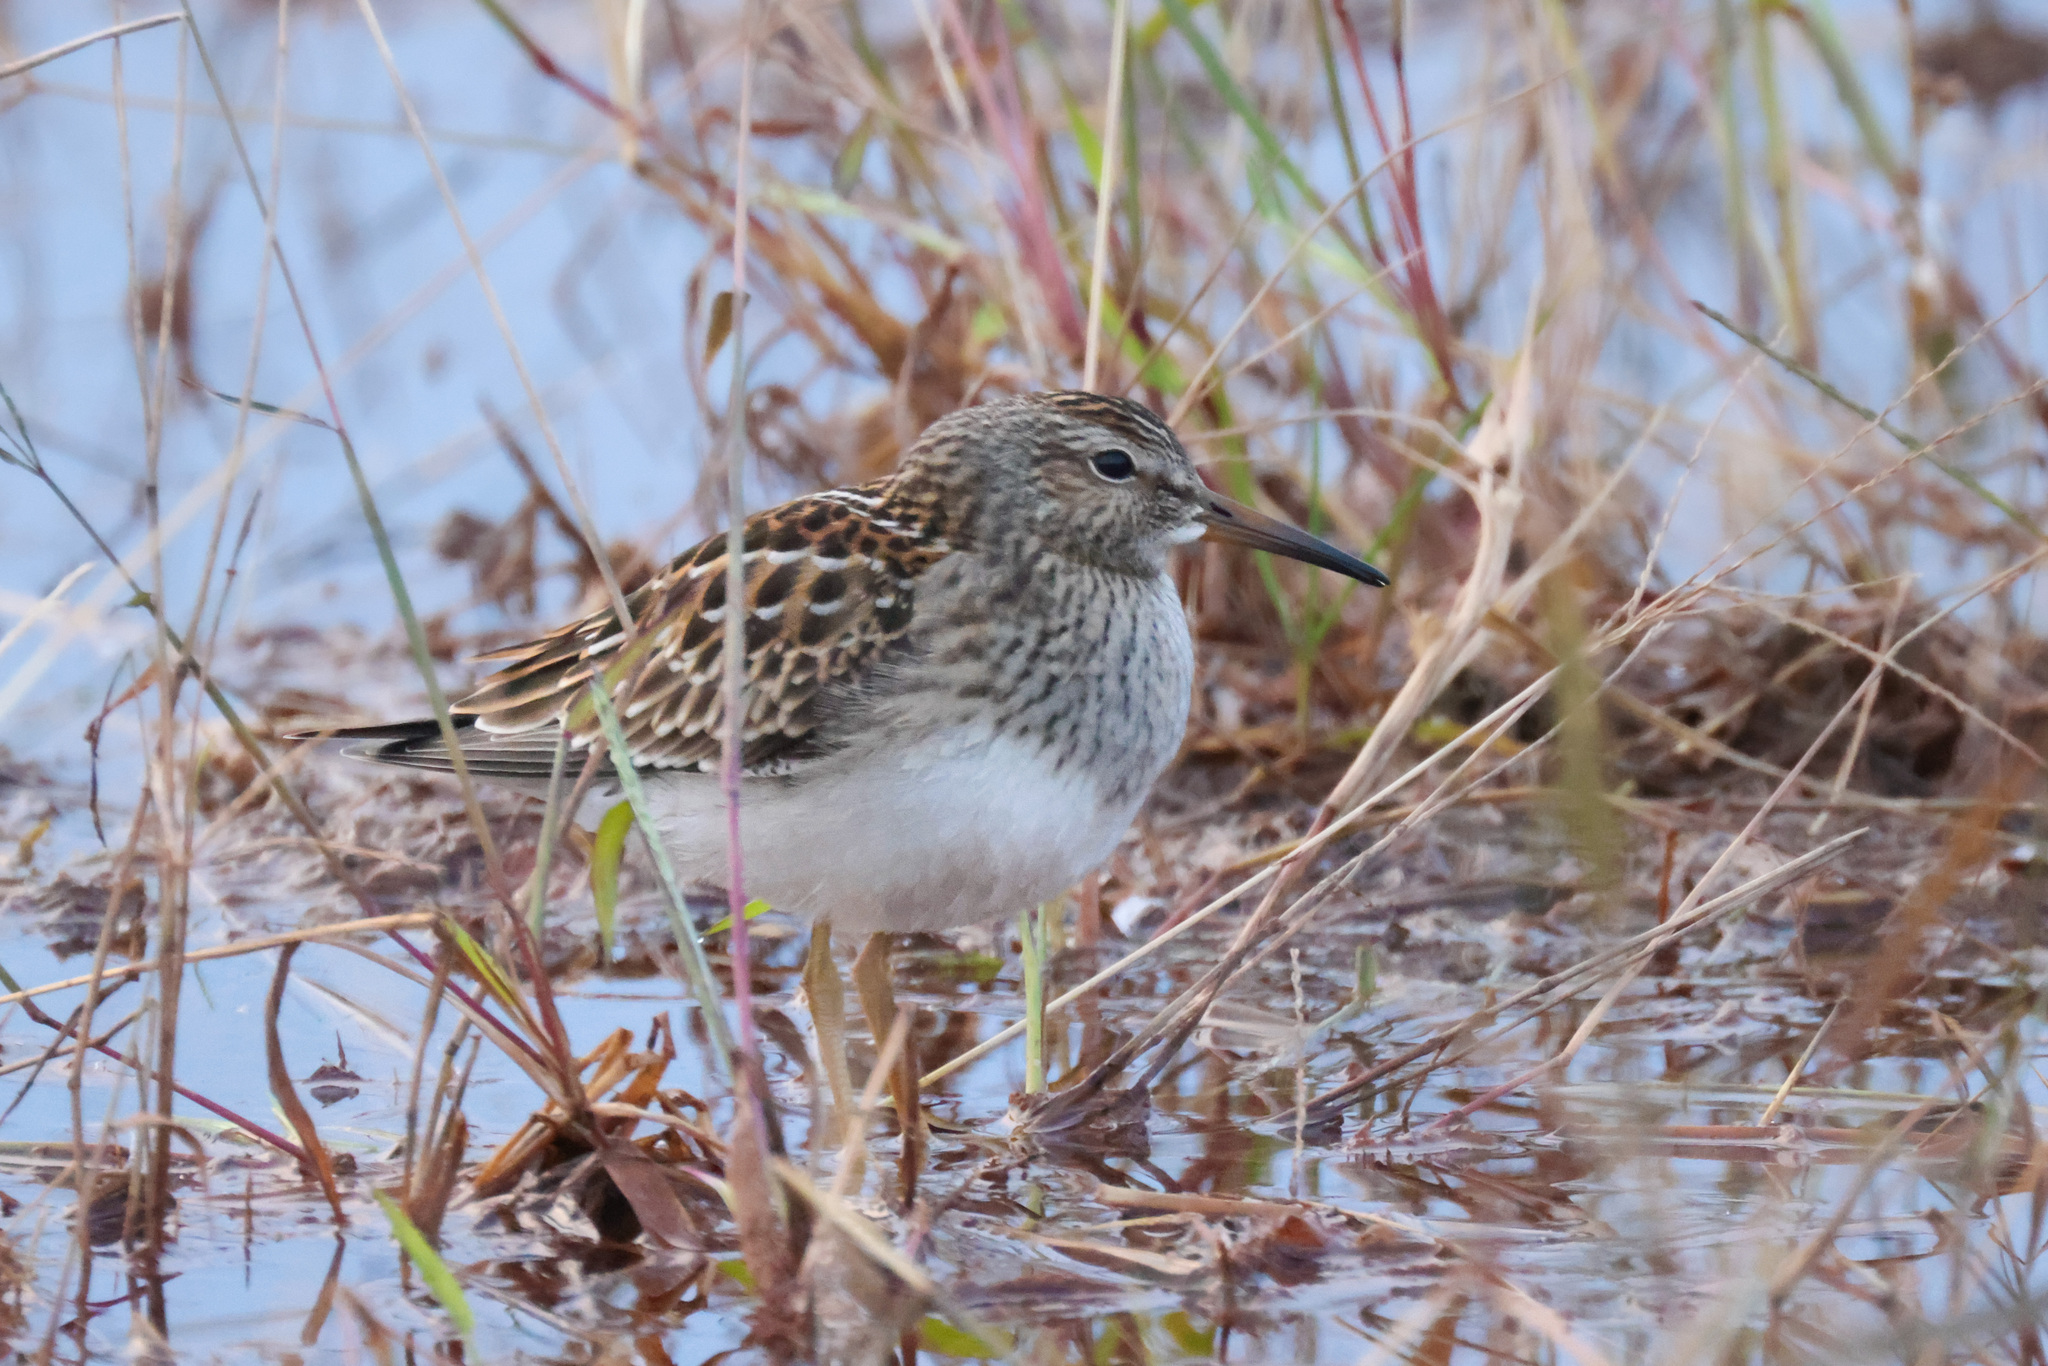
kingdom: Animalia
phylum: Chordata
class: Aves
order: Charadriiformes
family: Scolopacidae
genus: Calidris
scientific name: Calidris melanotos
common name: Pectoral sandpiper
